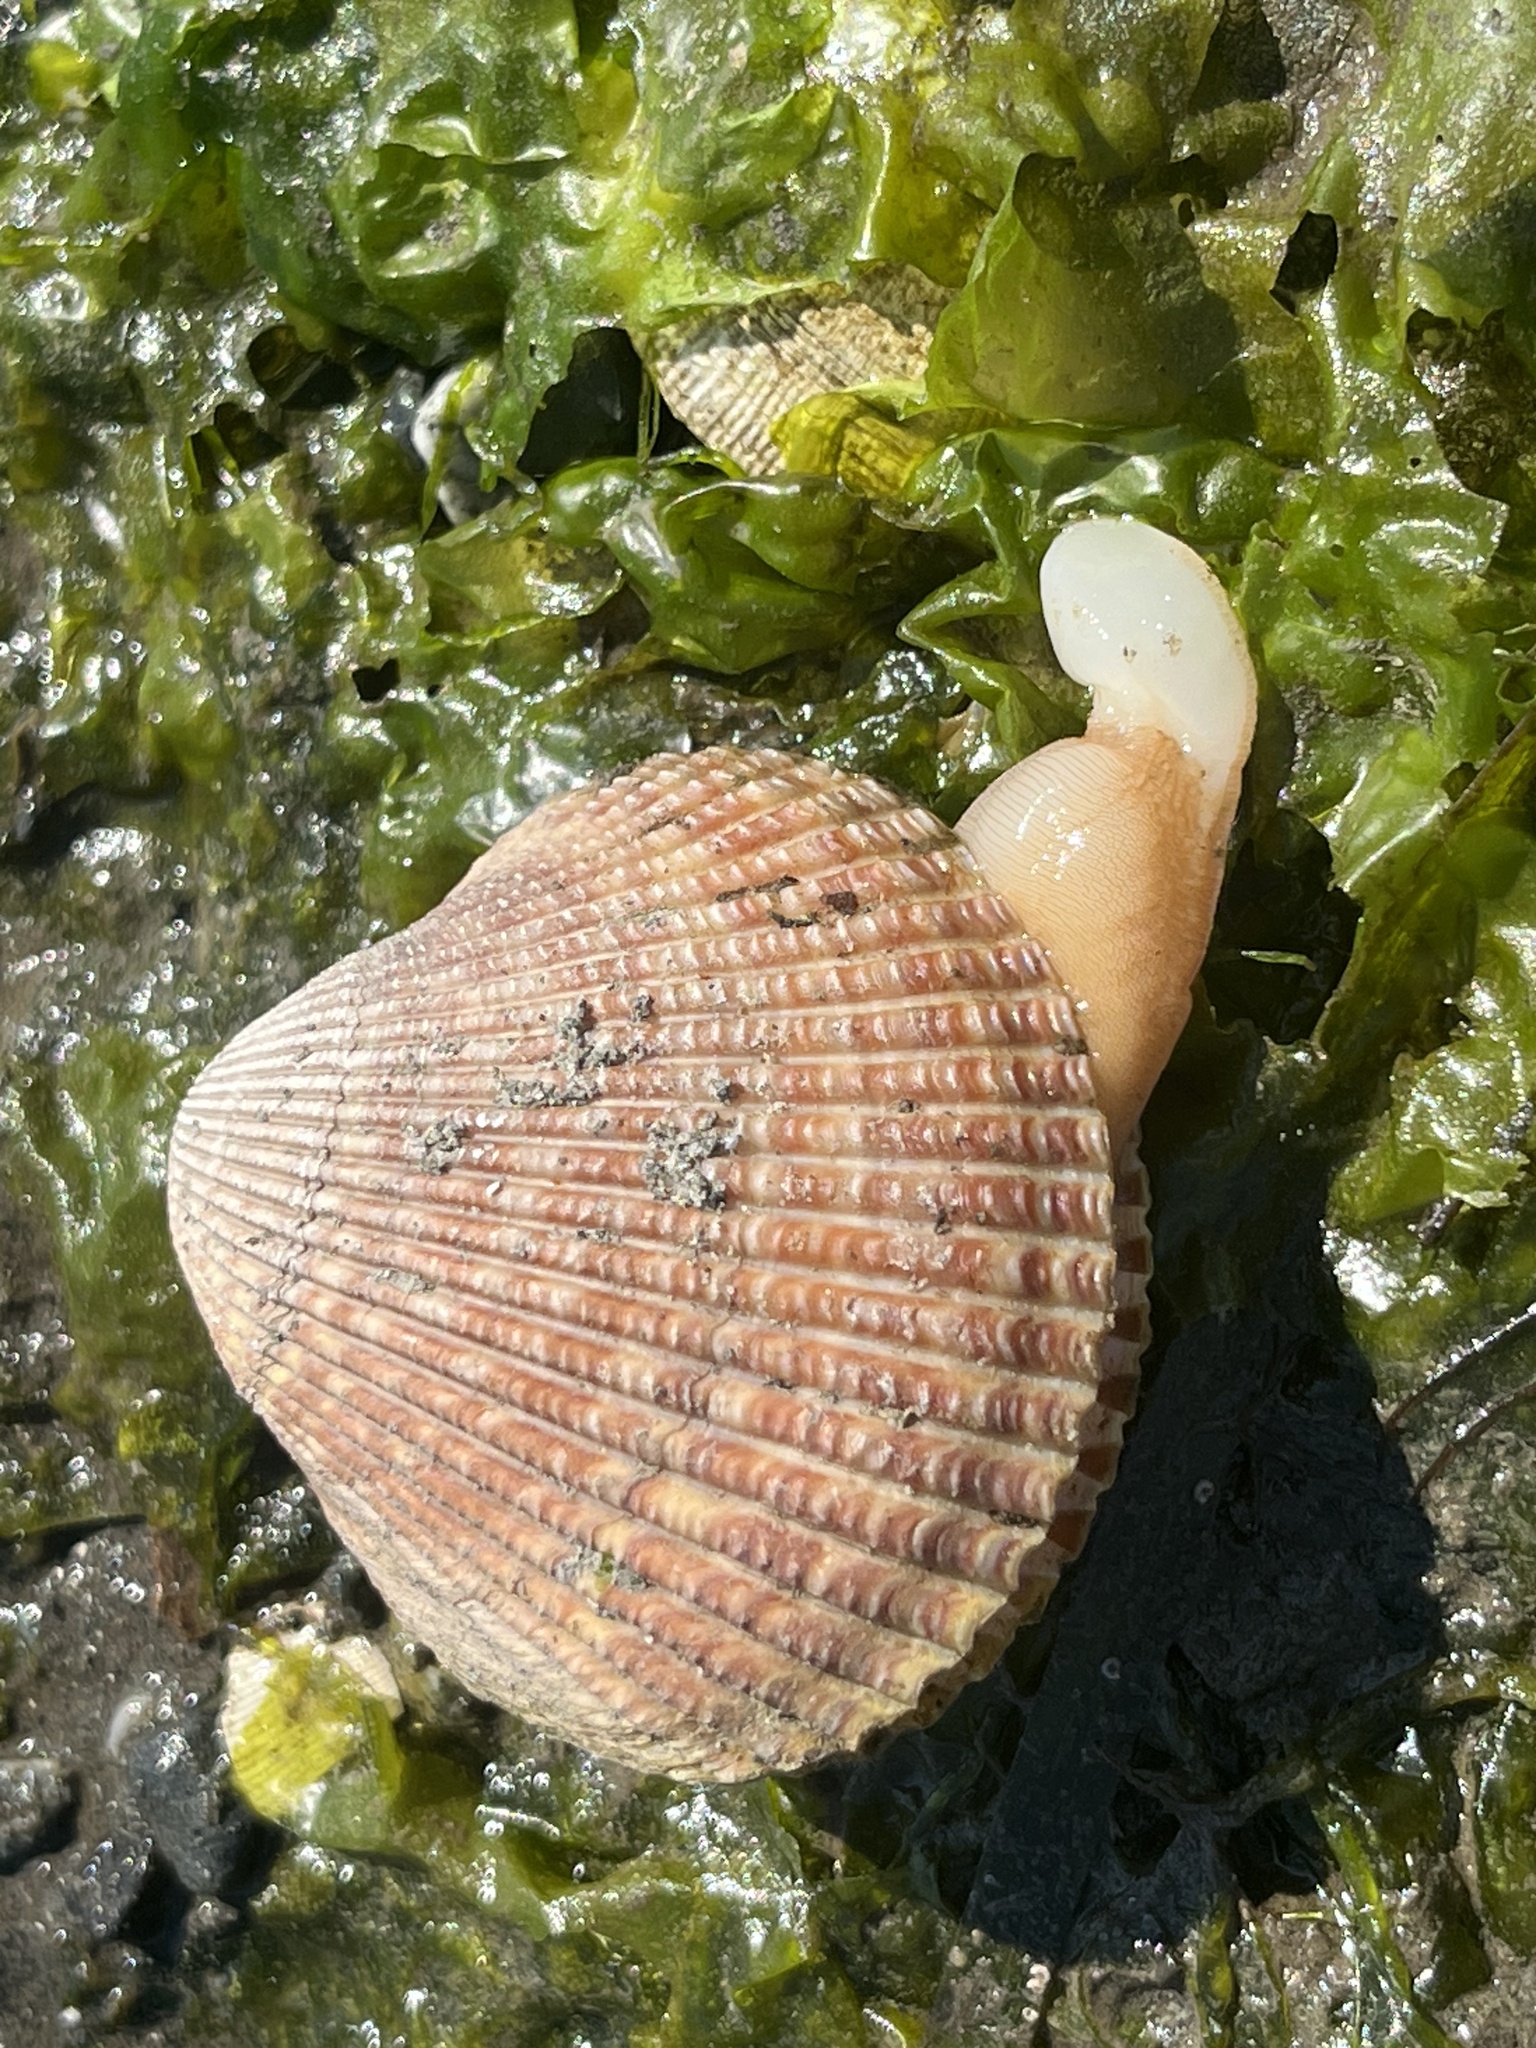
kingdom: Animalia
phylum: Mollusca
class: Bivalvia
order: Cardiida
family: Cardiidae
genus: Clinocardium
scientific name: Clinocardium nuttallii
